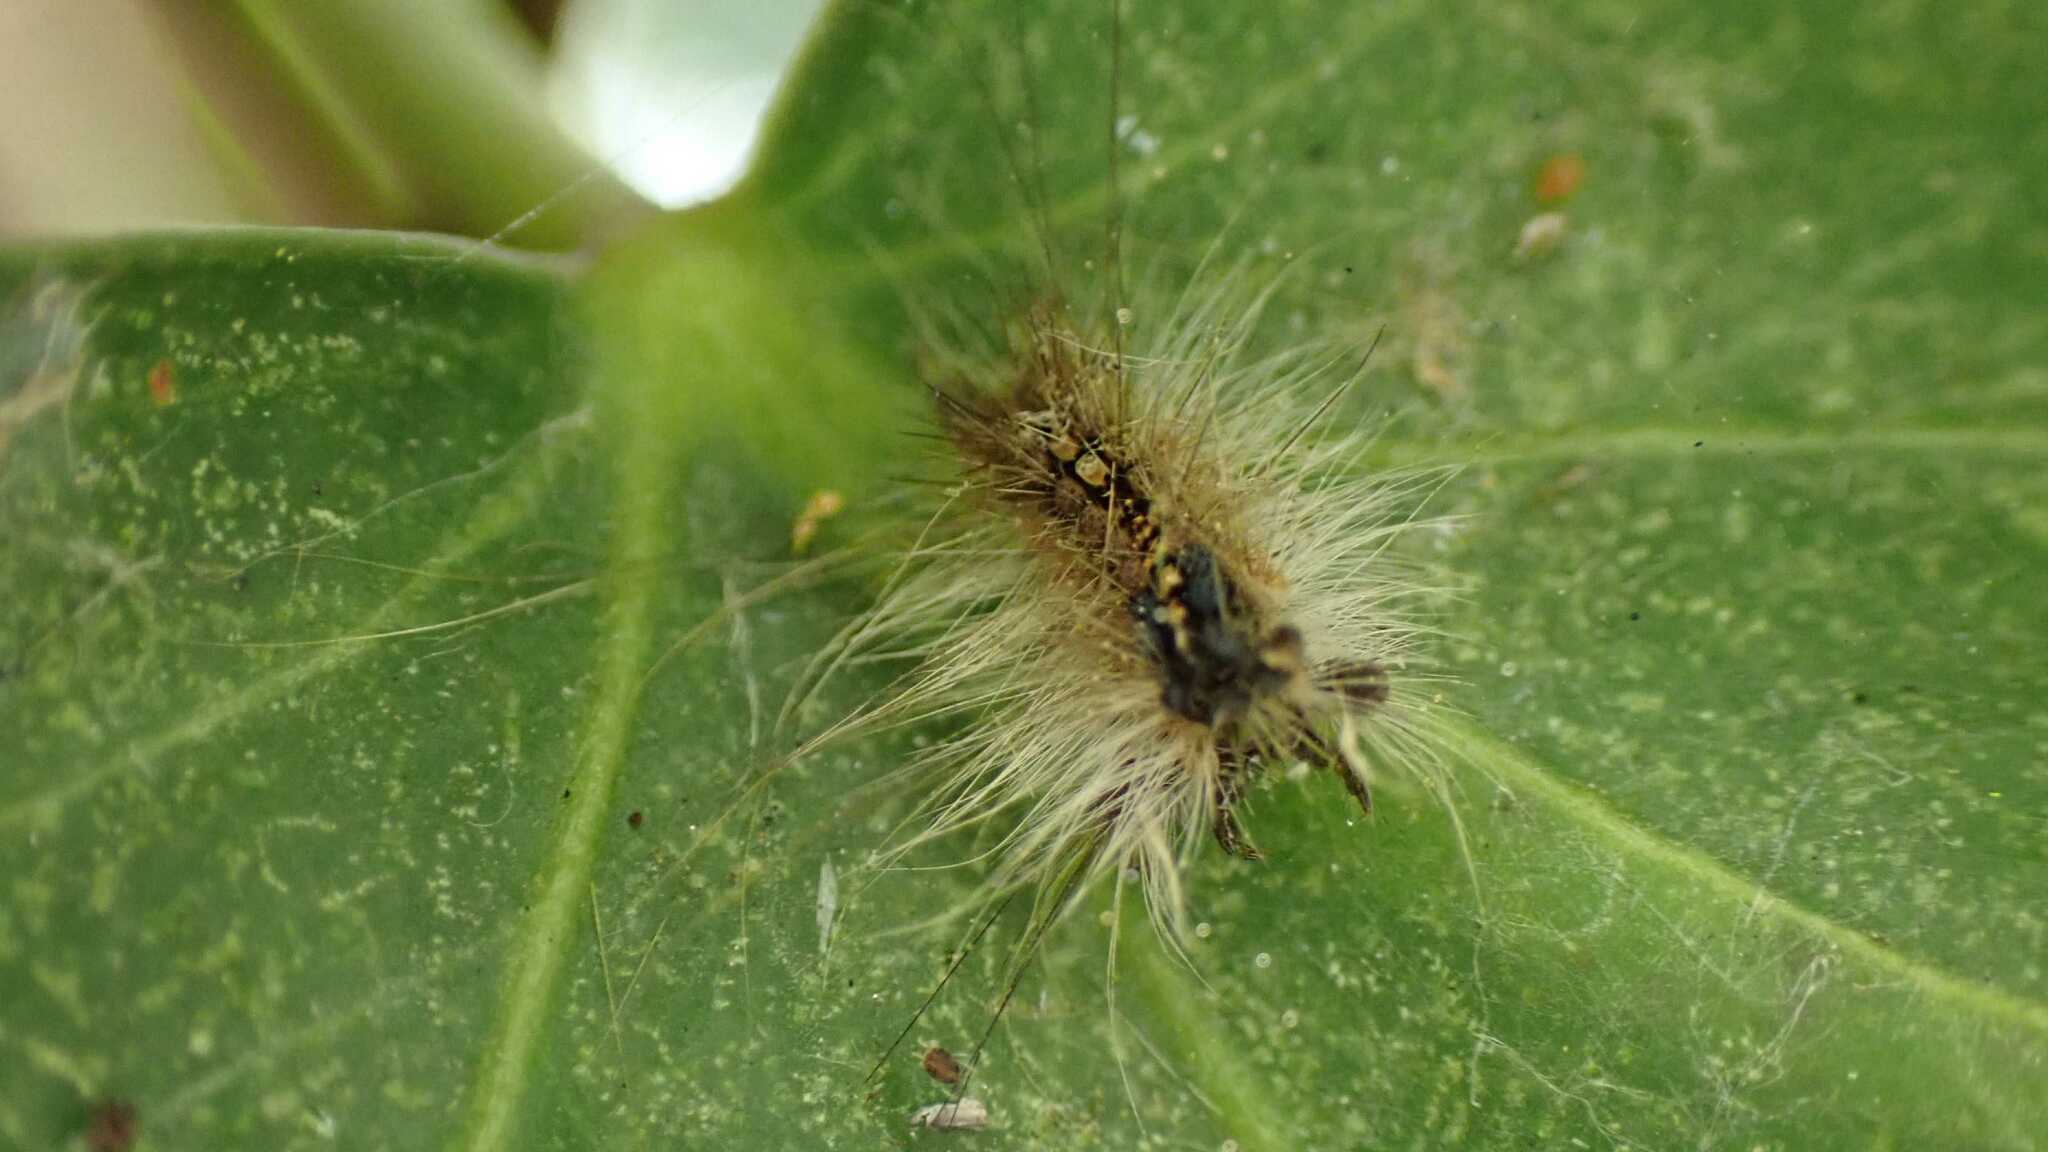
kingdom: Animalia
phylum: Arthropoda
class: Insecta
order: Lepidoptera
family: Erebidae
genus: Lymantria
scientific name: Lymantria dispar
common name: Gypsy moth
